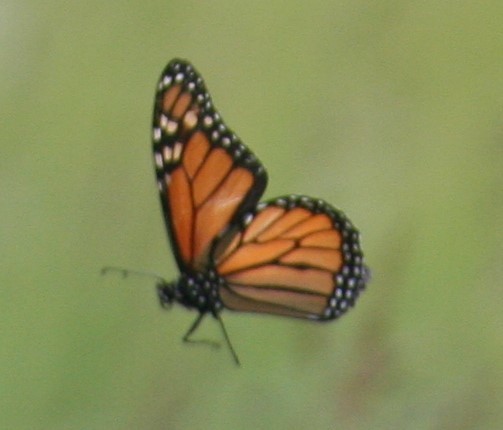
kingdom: Animalia
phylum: Arthropoda
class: Insecta
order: Lepidoptera
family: Nymphalidae
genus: Danaus
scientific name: Danaus plexippus
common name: Monarch
